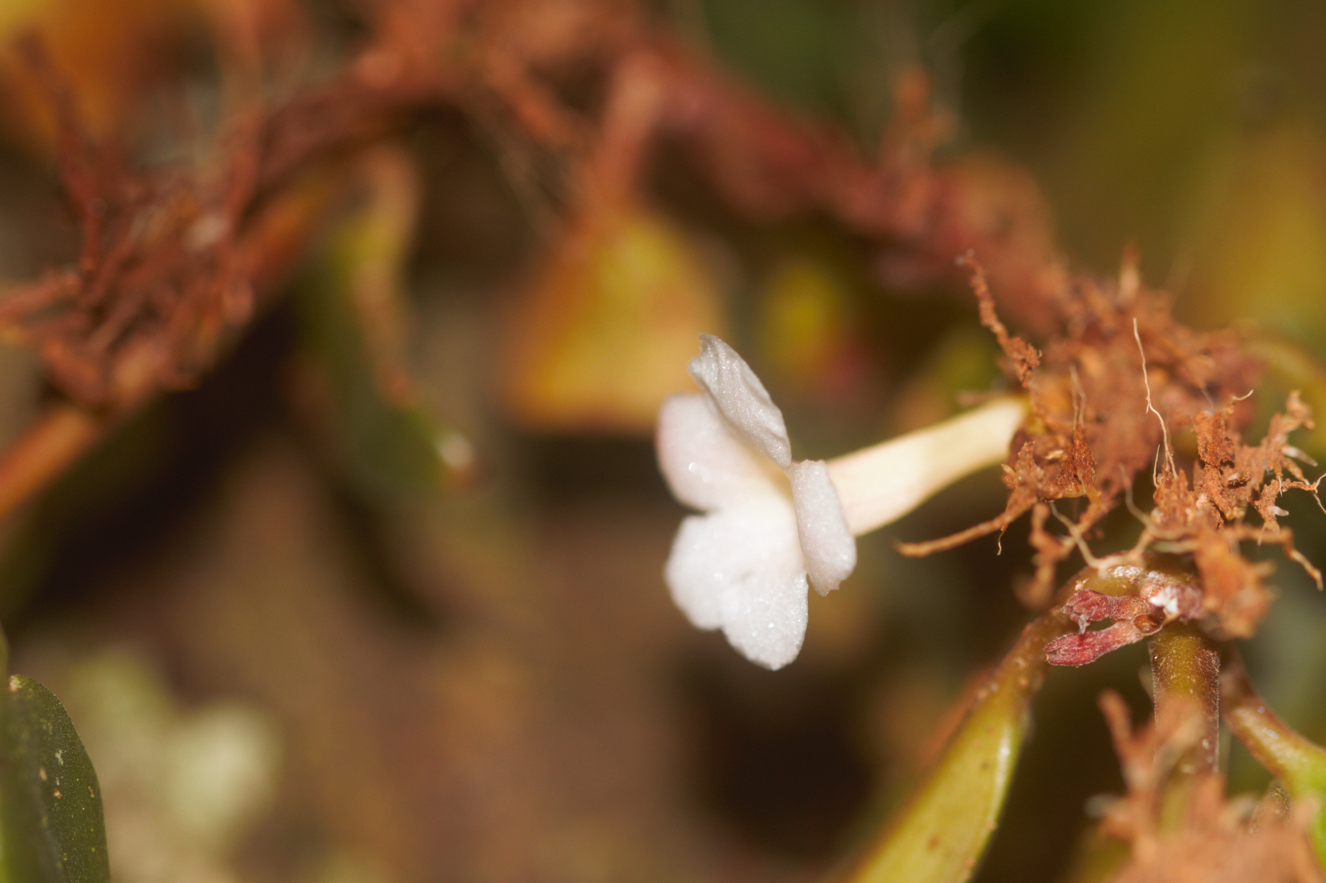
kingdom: Plantae
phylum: Tracheophyta
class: Magnoliopsida
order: Lamiales
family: Gesneriaceae
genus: Codonanthopsis
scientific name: Codonanthopsis crassifolia
